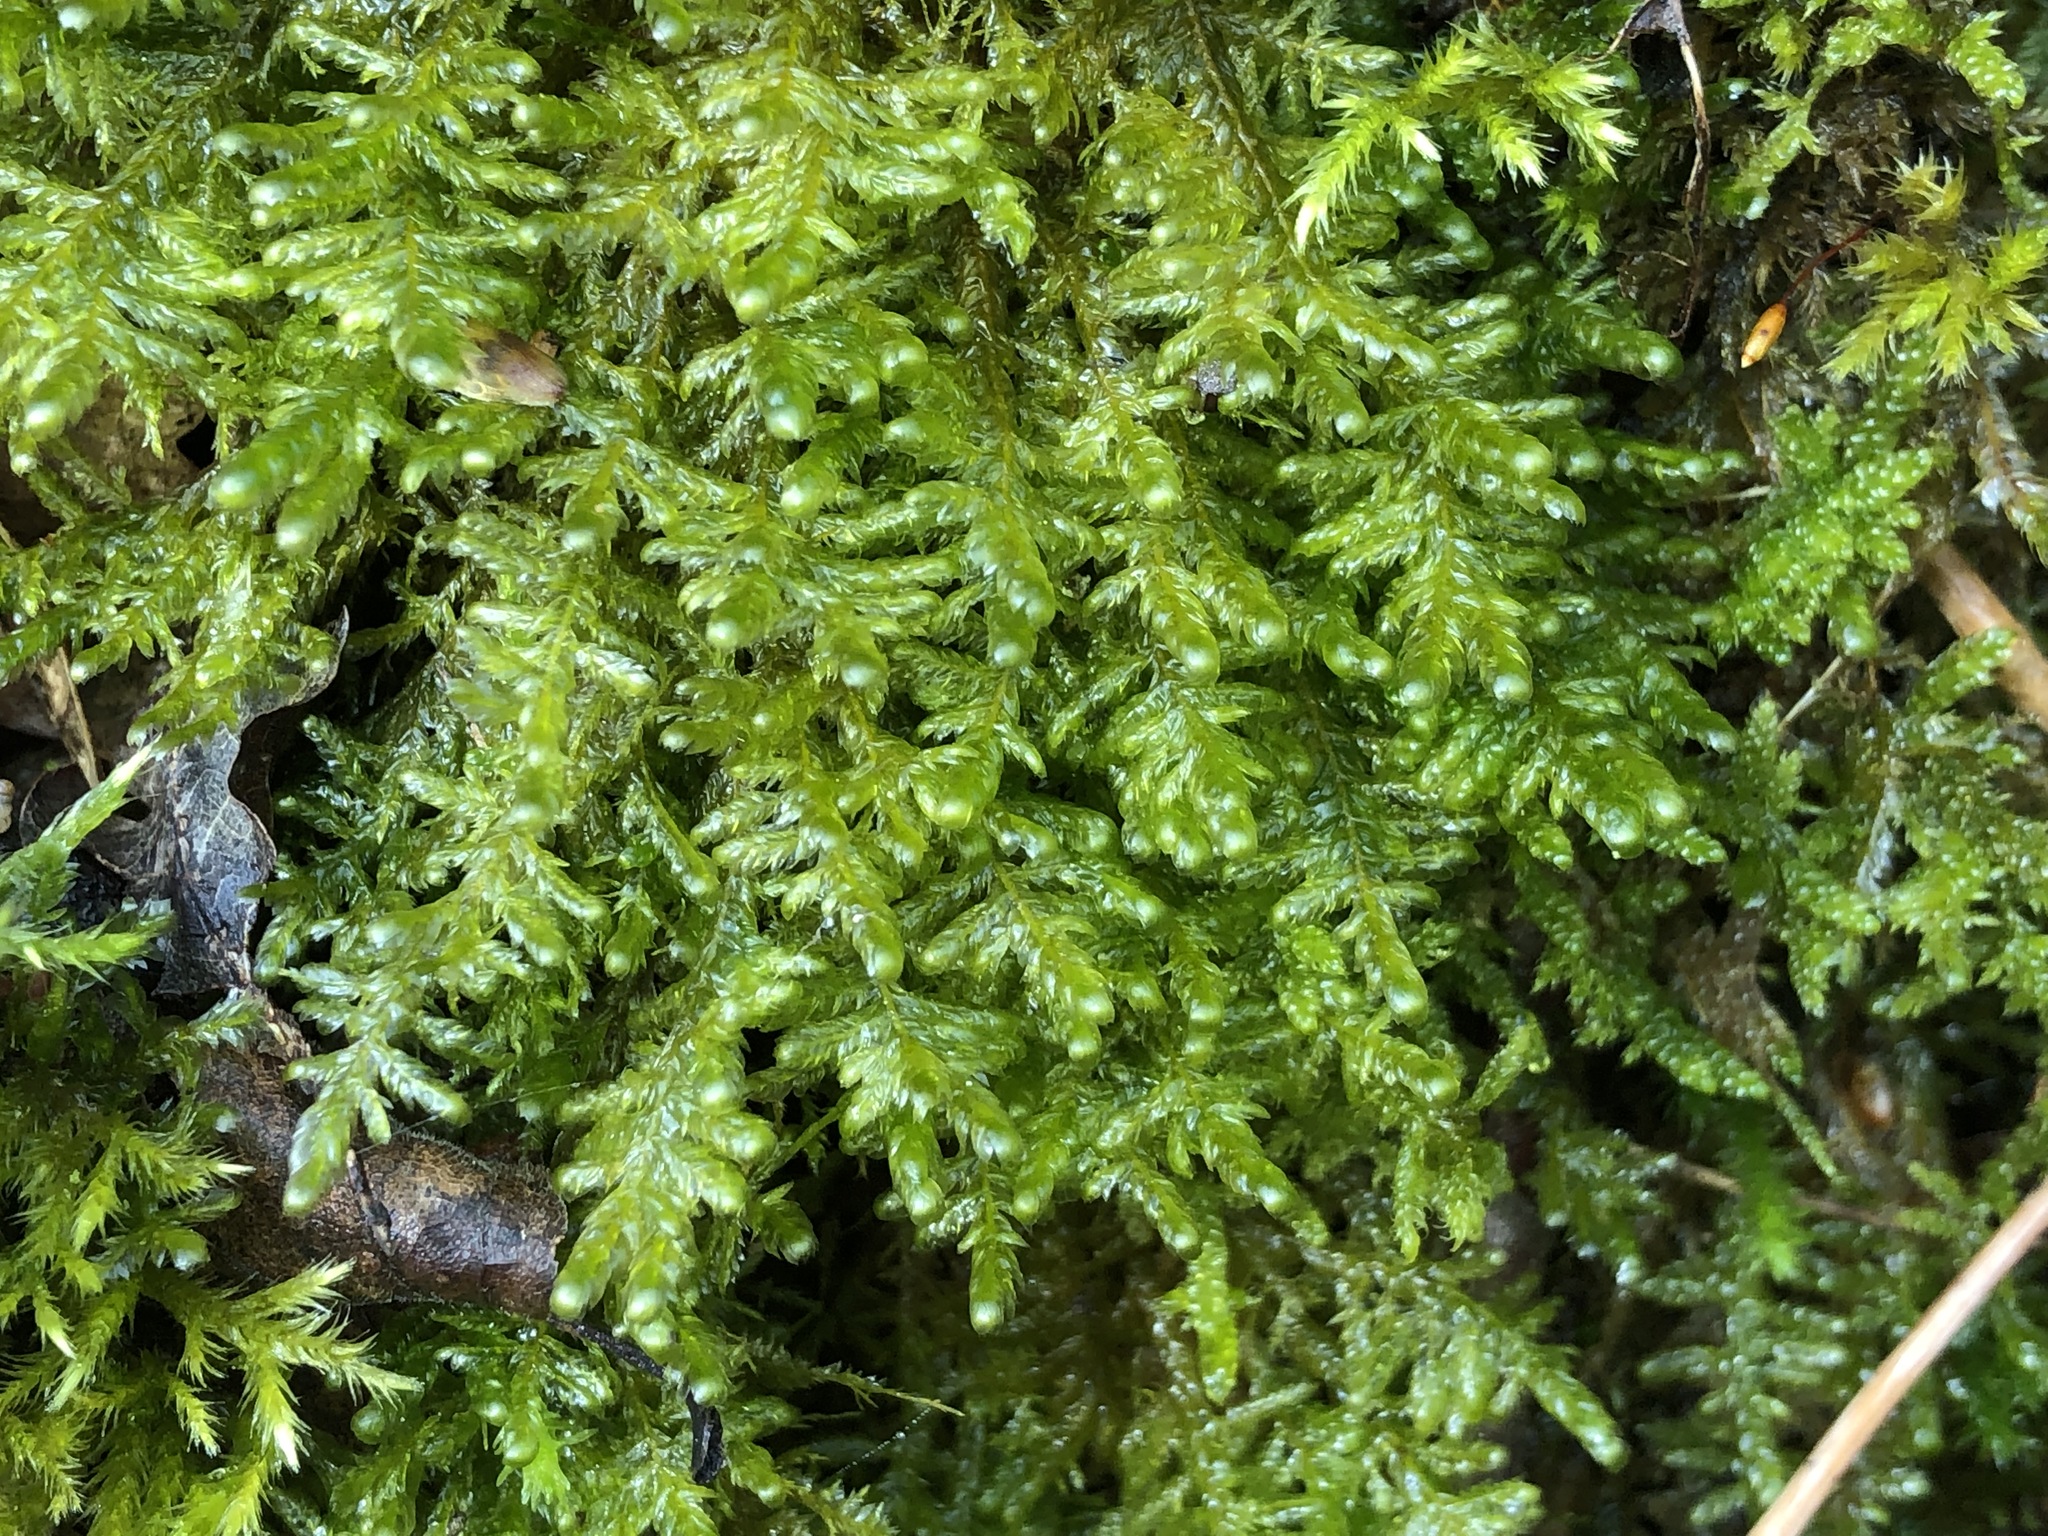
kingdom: Plantae
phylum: Bryophyta
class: Bryopsida
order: Hypnales
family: Neckeraceae
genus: Alleniella
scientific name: Alleniella complanata
